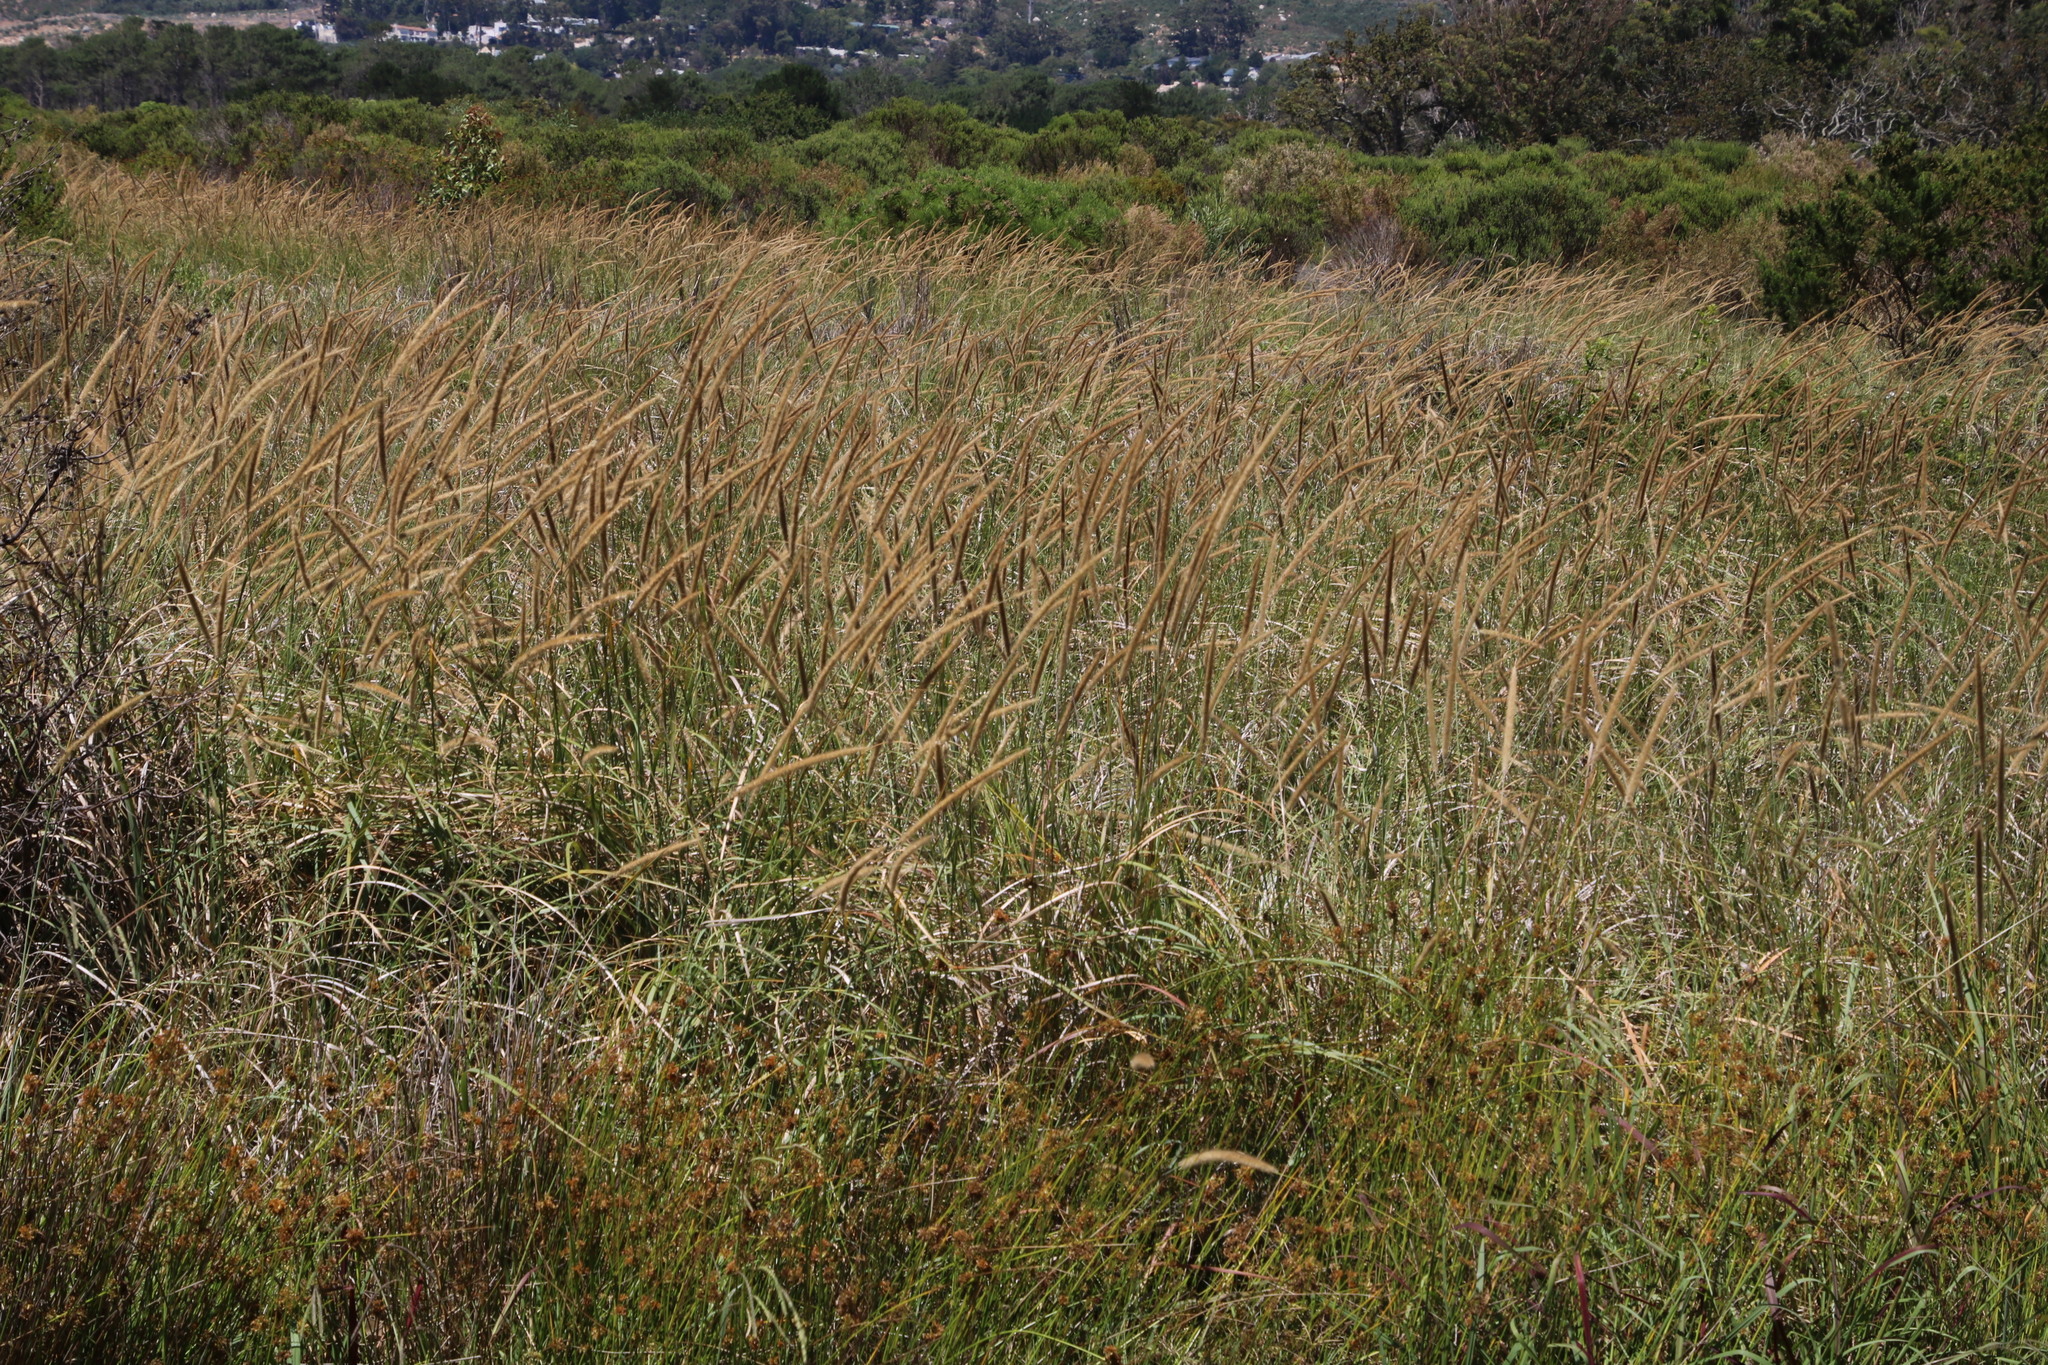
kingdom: Plantae
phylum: Tracheophyta
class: Liliopsida
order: Poales
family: Poaceae
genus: Cenchrus
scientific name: Cenchrus caudatus
